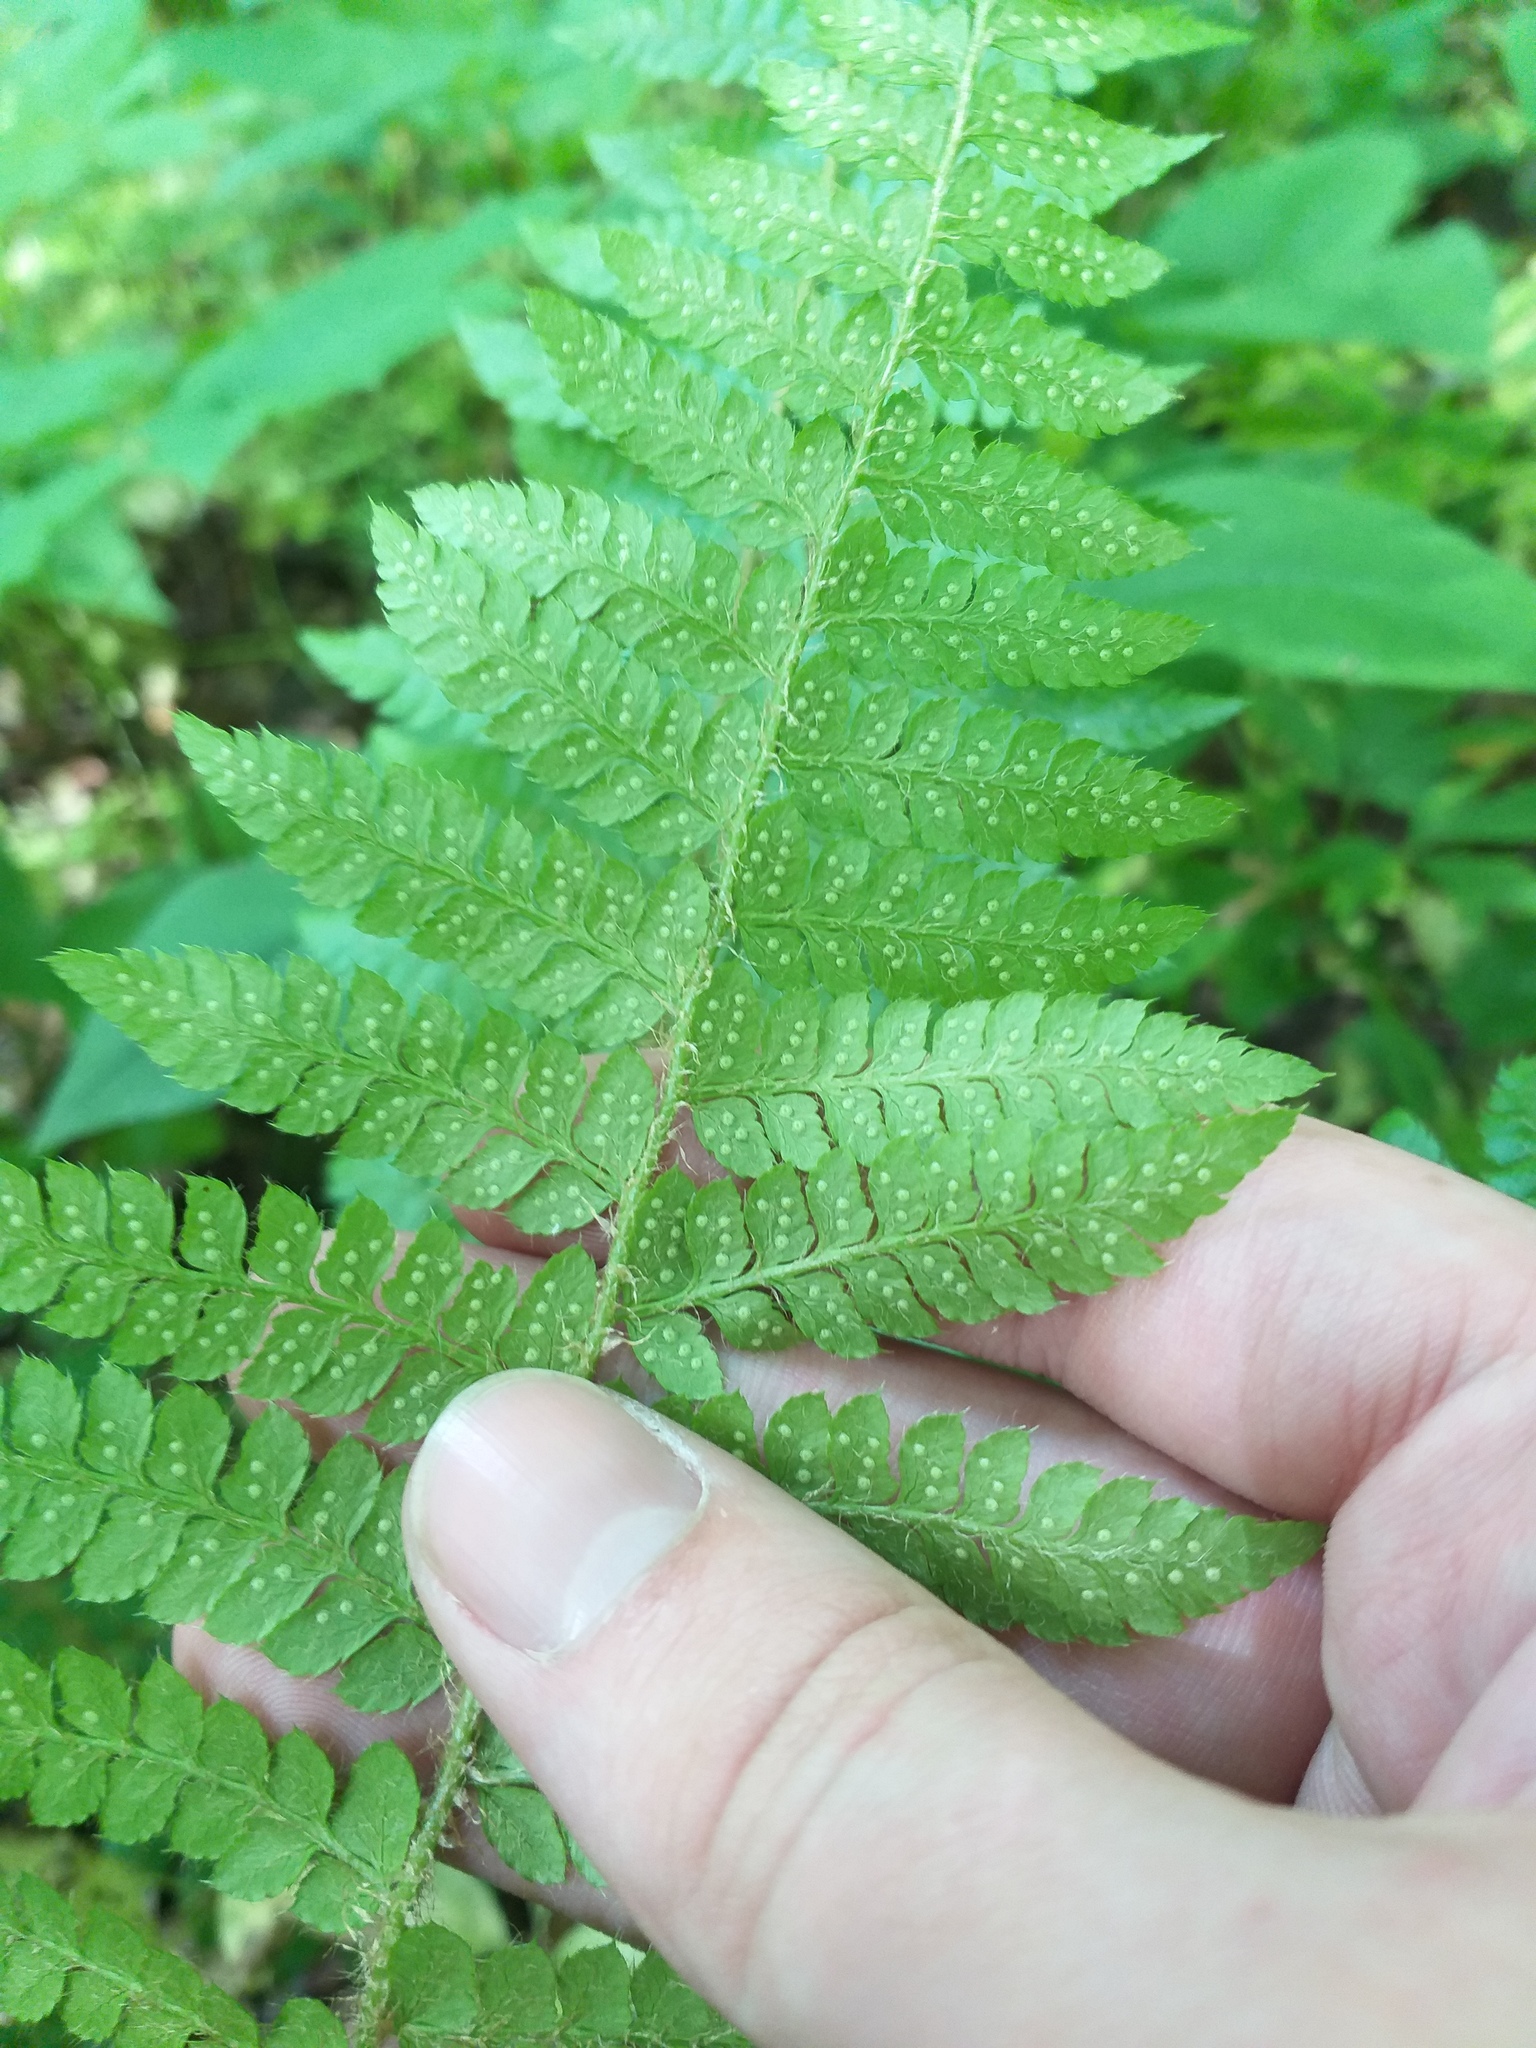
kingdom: Plantae
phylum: Tracheophyta
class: Polypodiopsida
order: Polypodiales
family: Dryopteridaceae
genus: Polystichum
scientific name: Polystichum braunii
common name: Braun's holly fern
